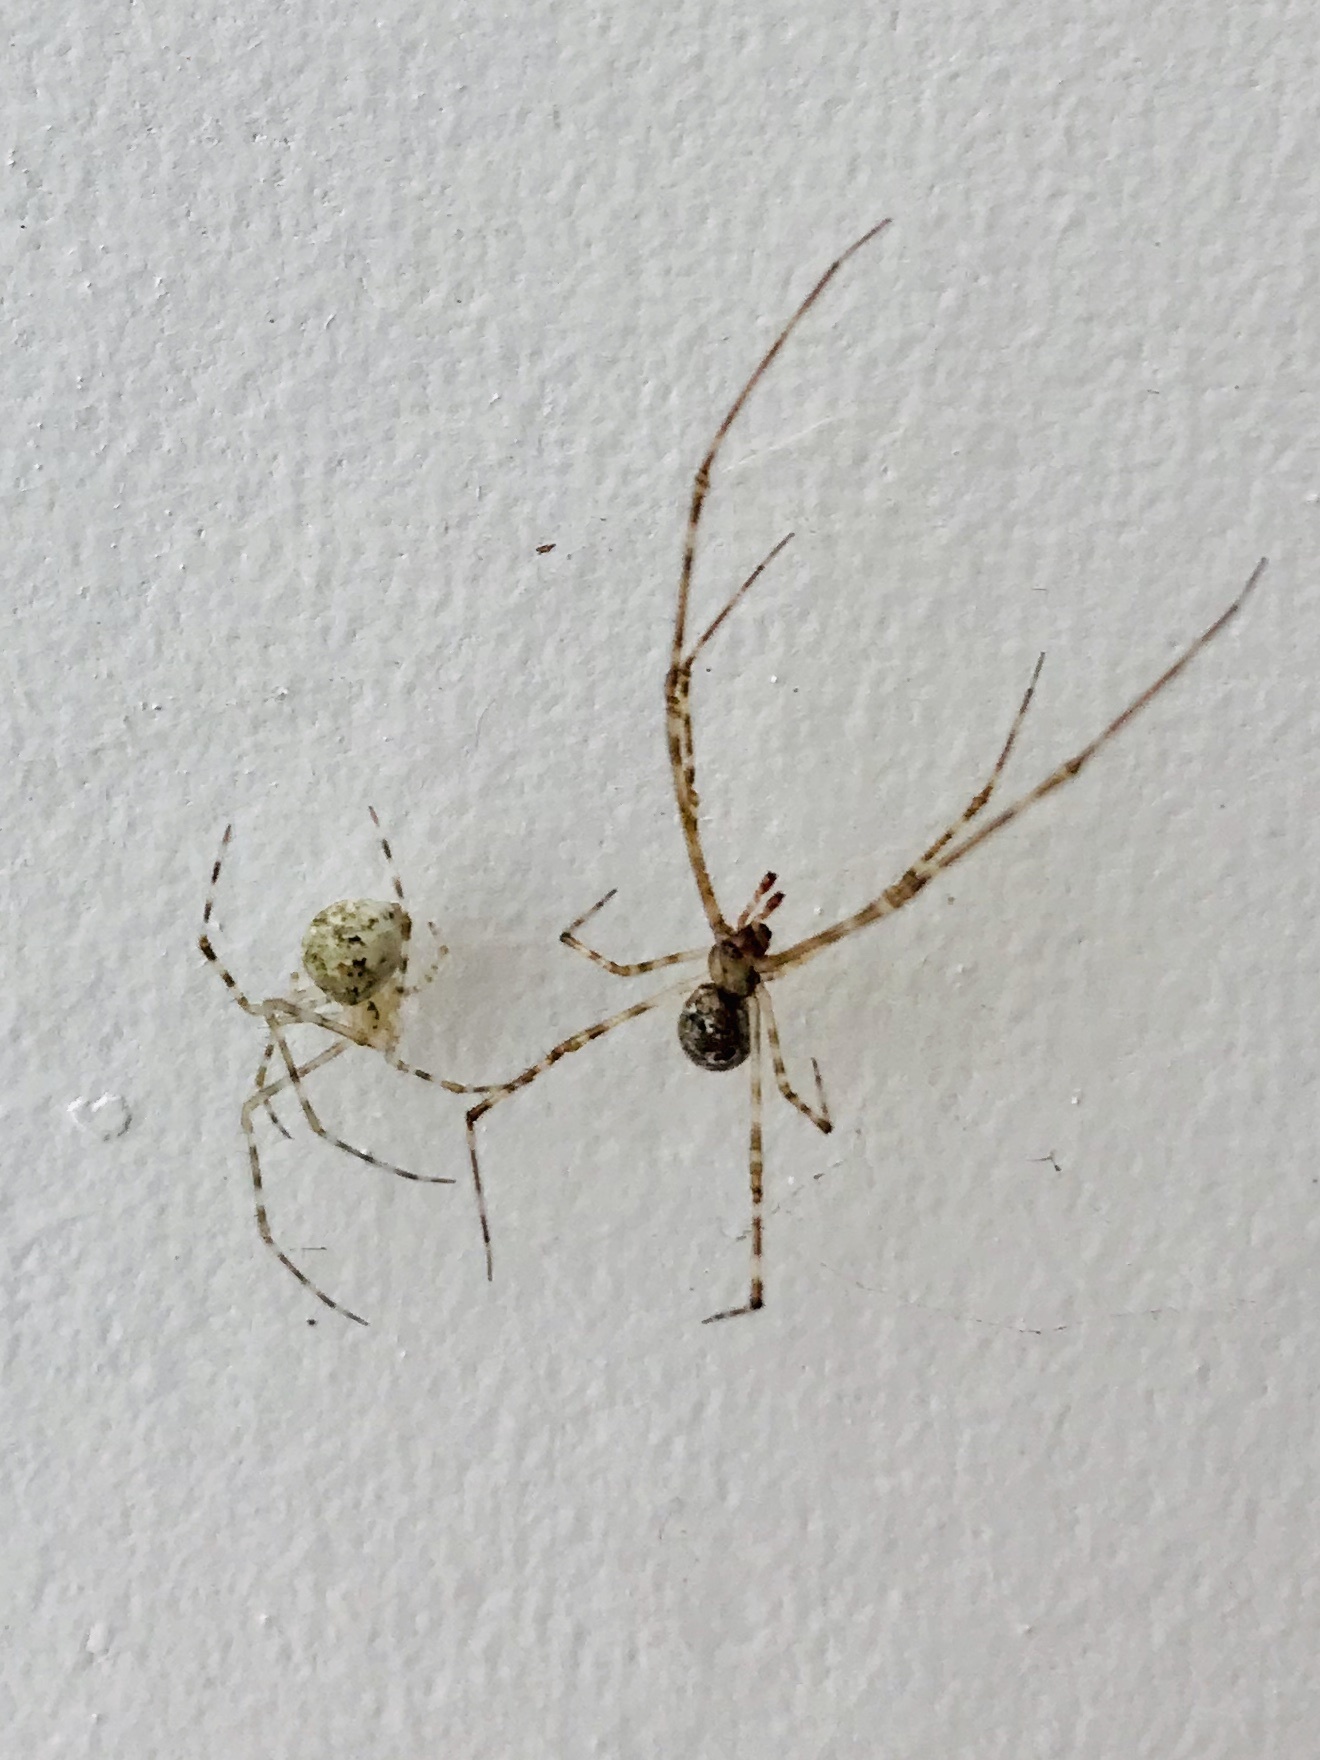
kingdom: Animalia
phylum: Arthropoda
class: Arachnida
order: Araneae
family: Theridiidae
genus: Cryptachaea
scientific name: Cryptachaea gigantipes
